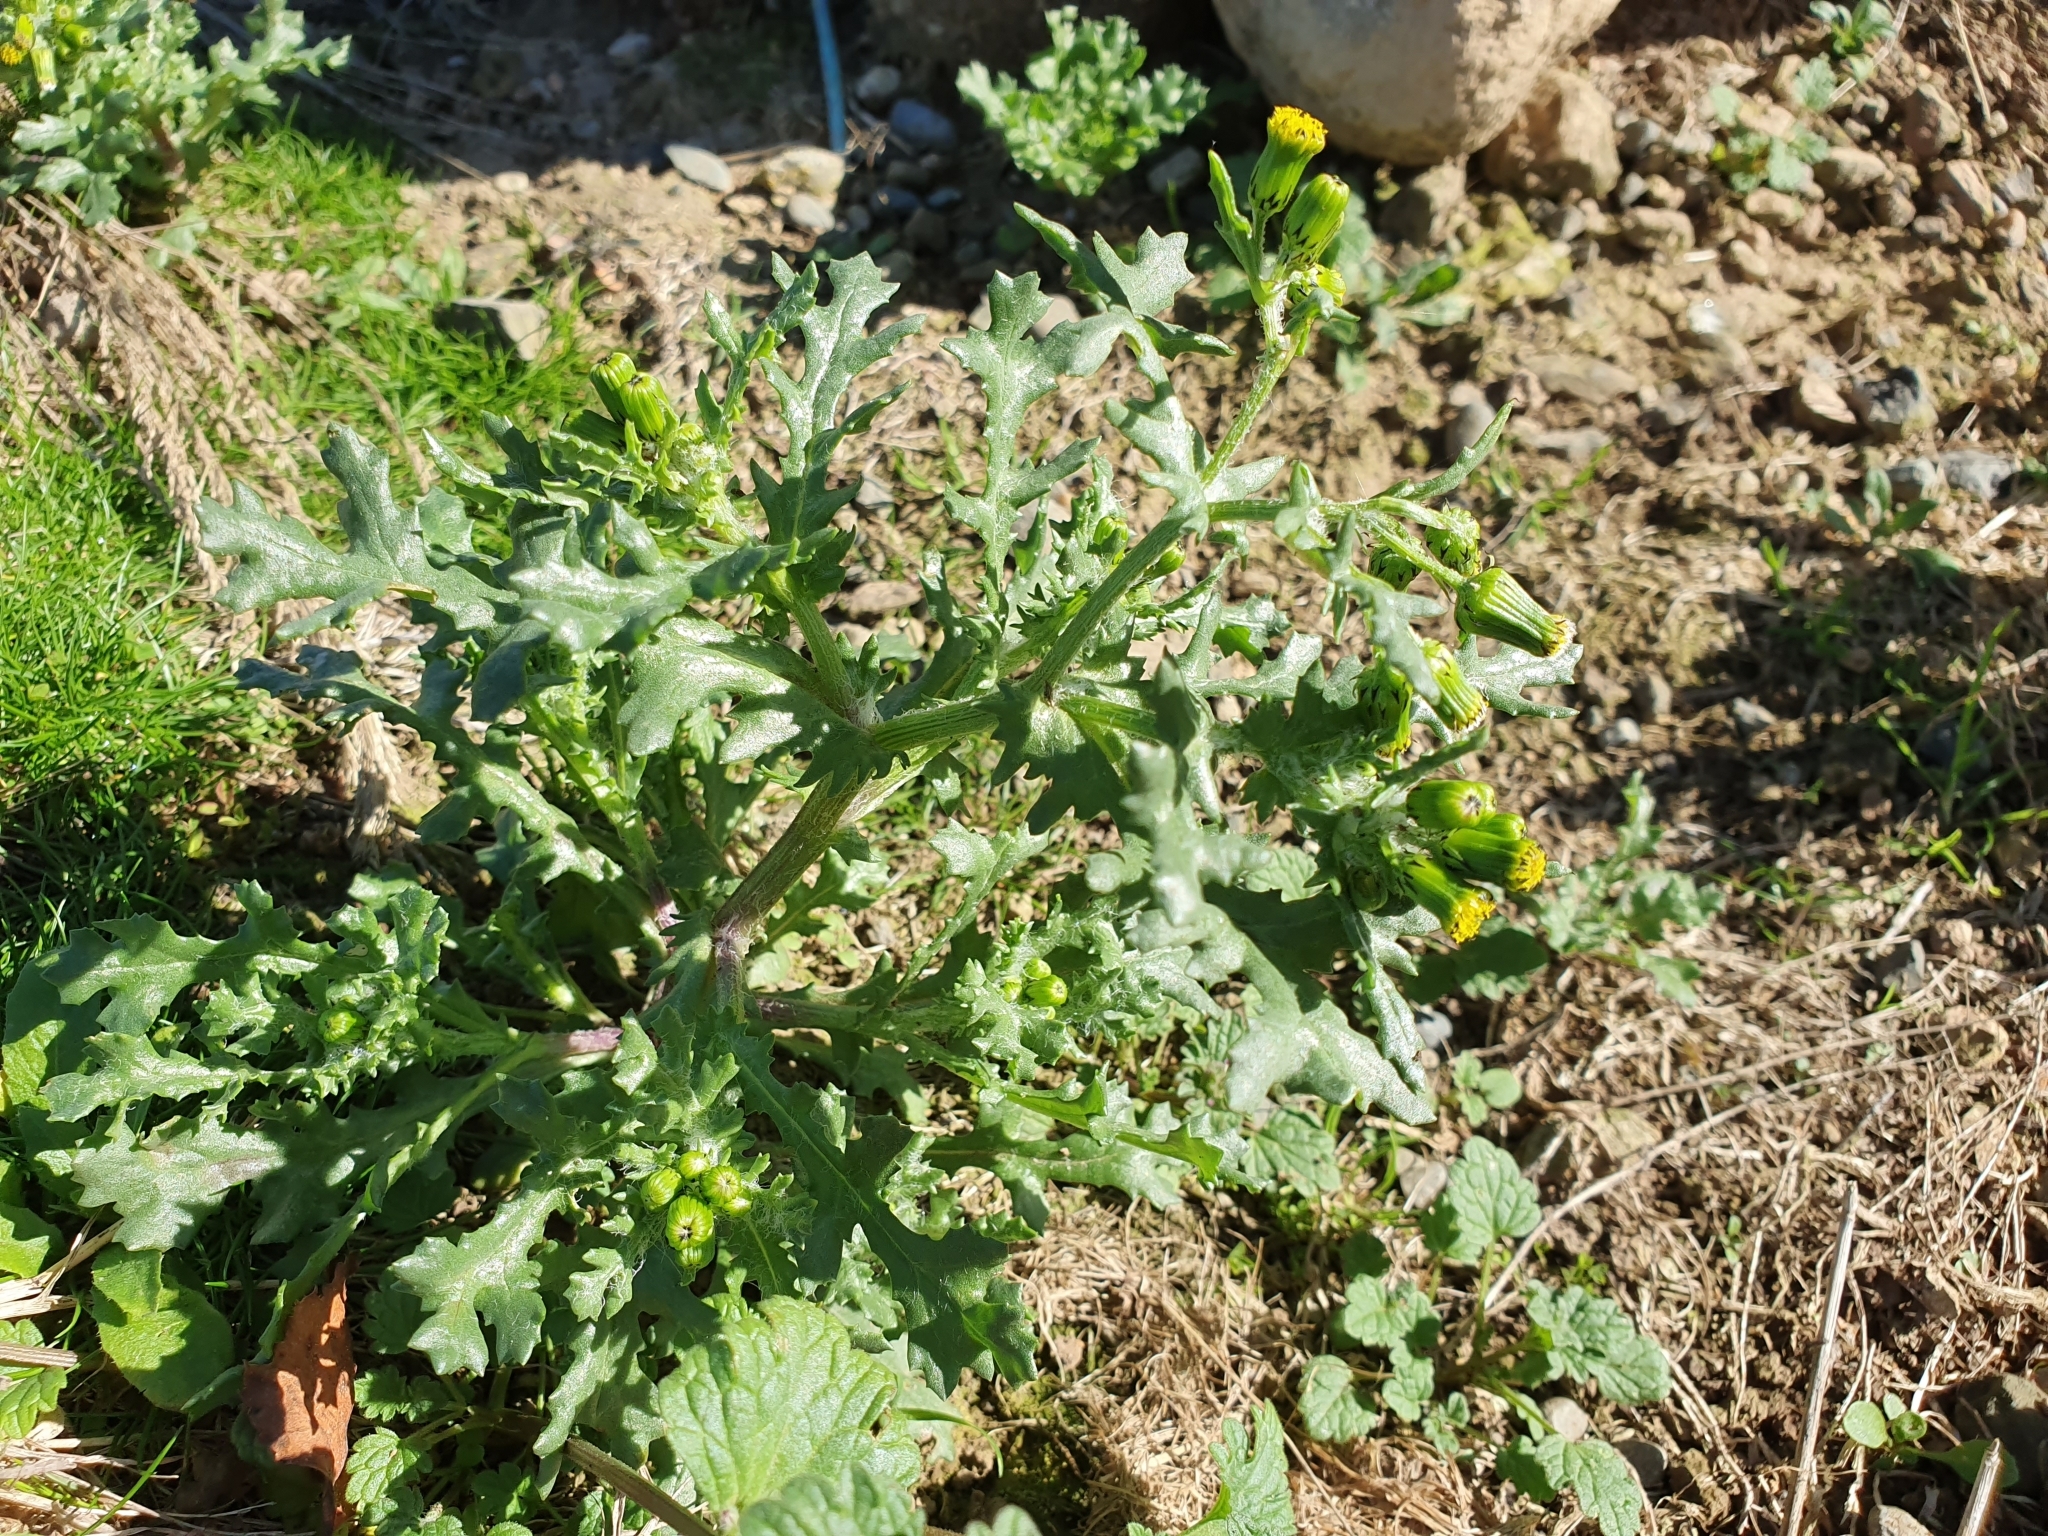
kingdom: Plantae
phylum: Tracheophyta
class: Magnoliopsida
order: Asterales
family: Asteraceae
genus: Senecio
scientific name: Senecio vulgaris
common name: Old-man-in-the-spring
